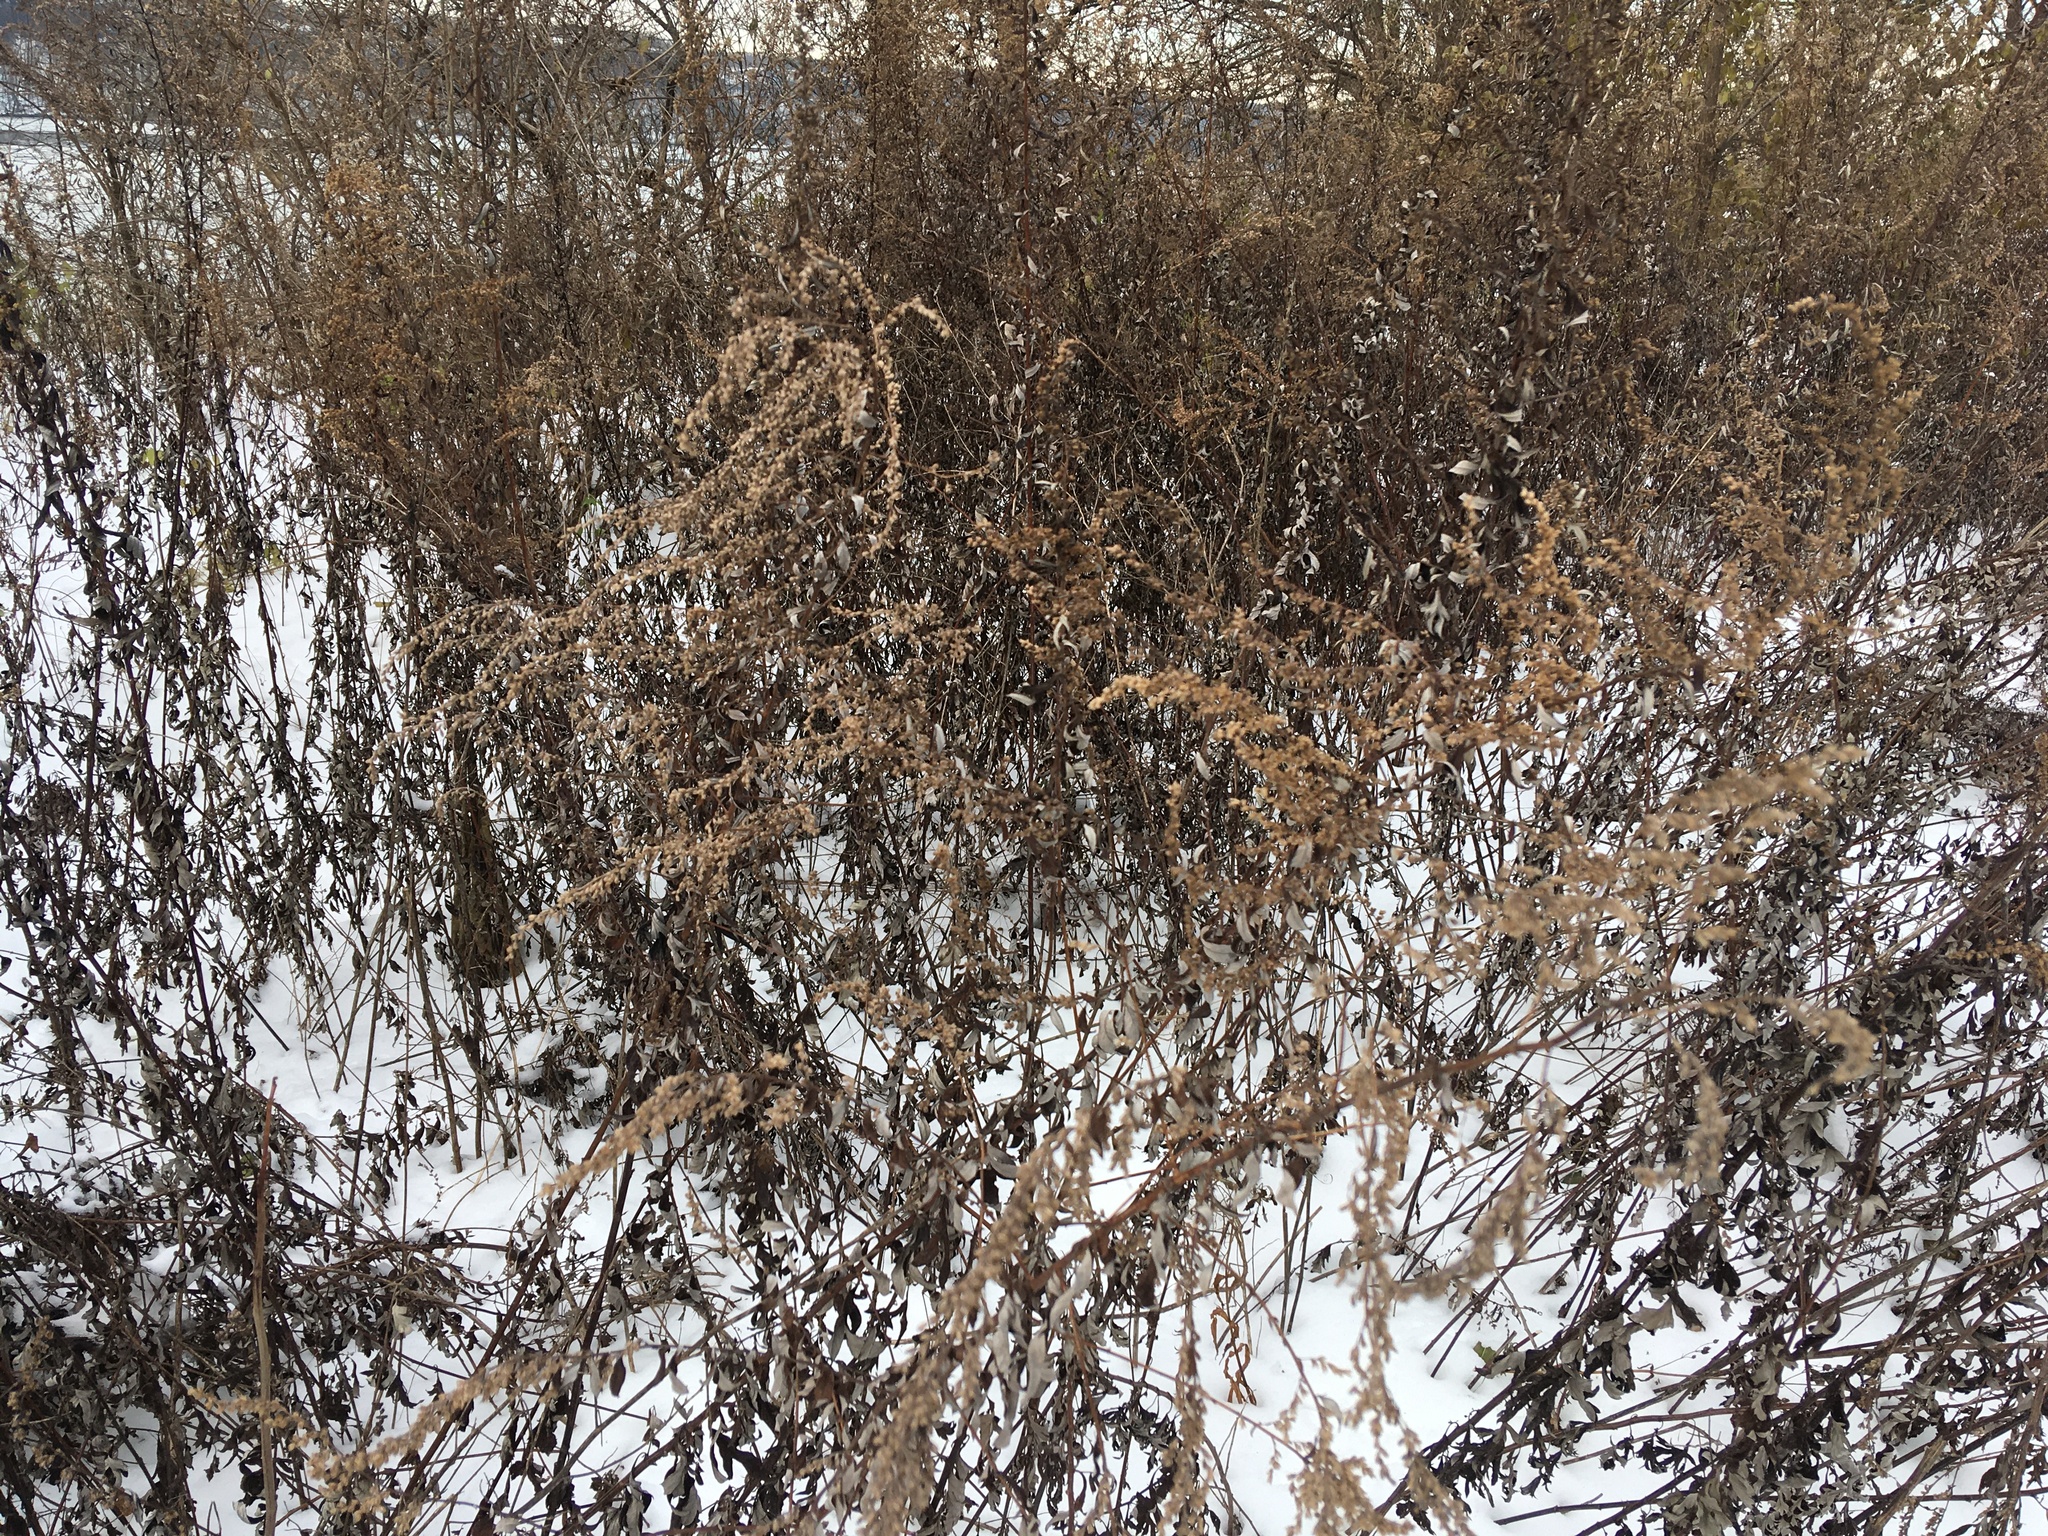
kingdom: Plantae
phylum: Tracheophyta
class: Magnoliopsida
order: Asterales
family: Asteraceae
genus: Artemisia
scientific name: Artemisia vulgaris
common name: Mugwort
